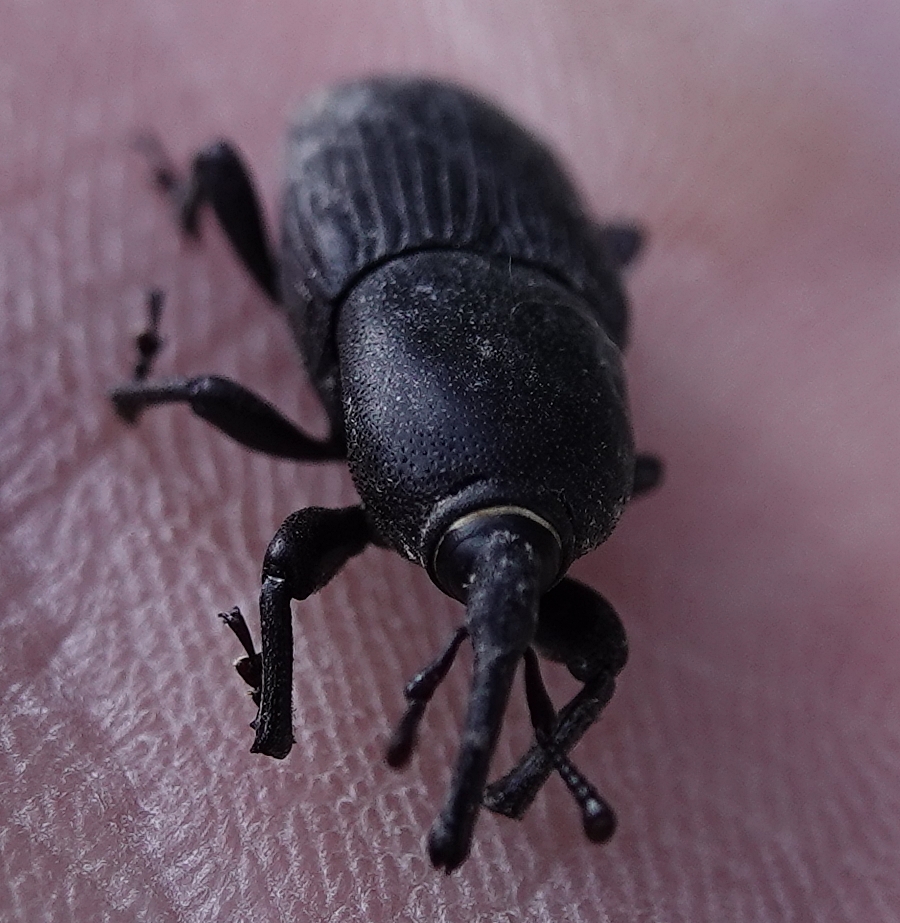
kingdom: Animalia
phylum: Arthropoda
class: Insecta
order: Coleoptera
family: Dryophthoridae
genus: Scyphophorus
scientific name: Scyphophorus acupunctatus
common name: Weevil
